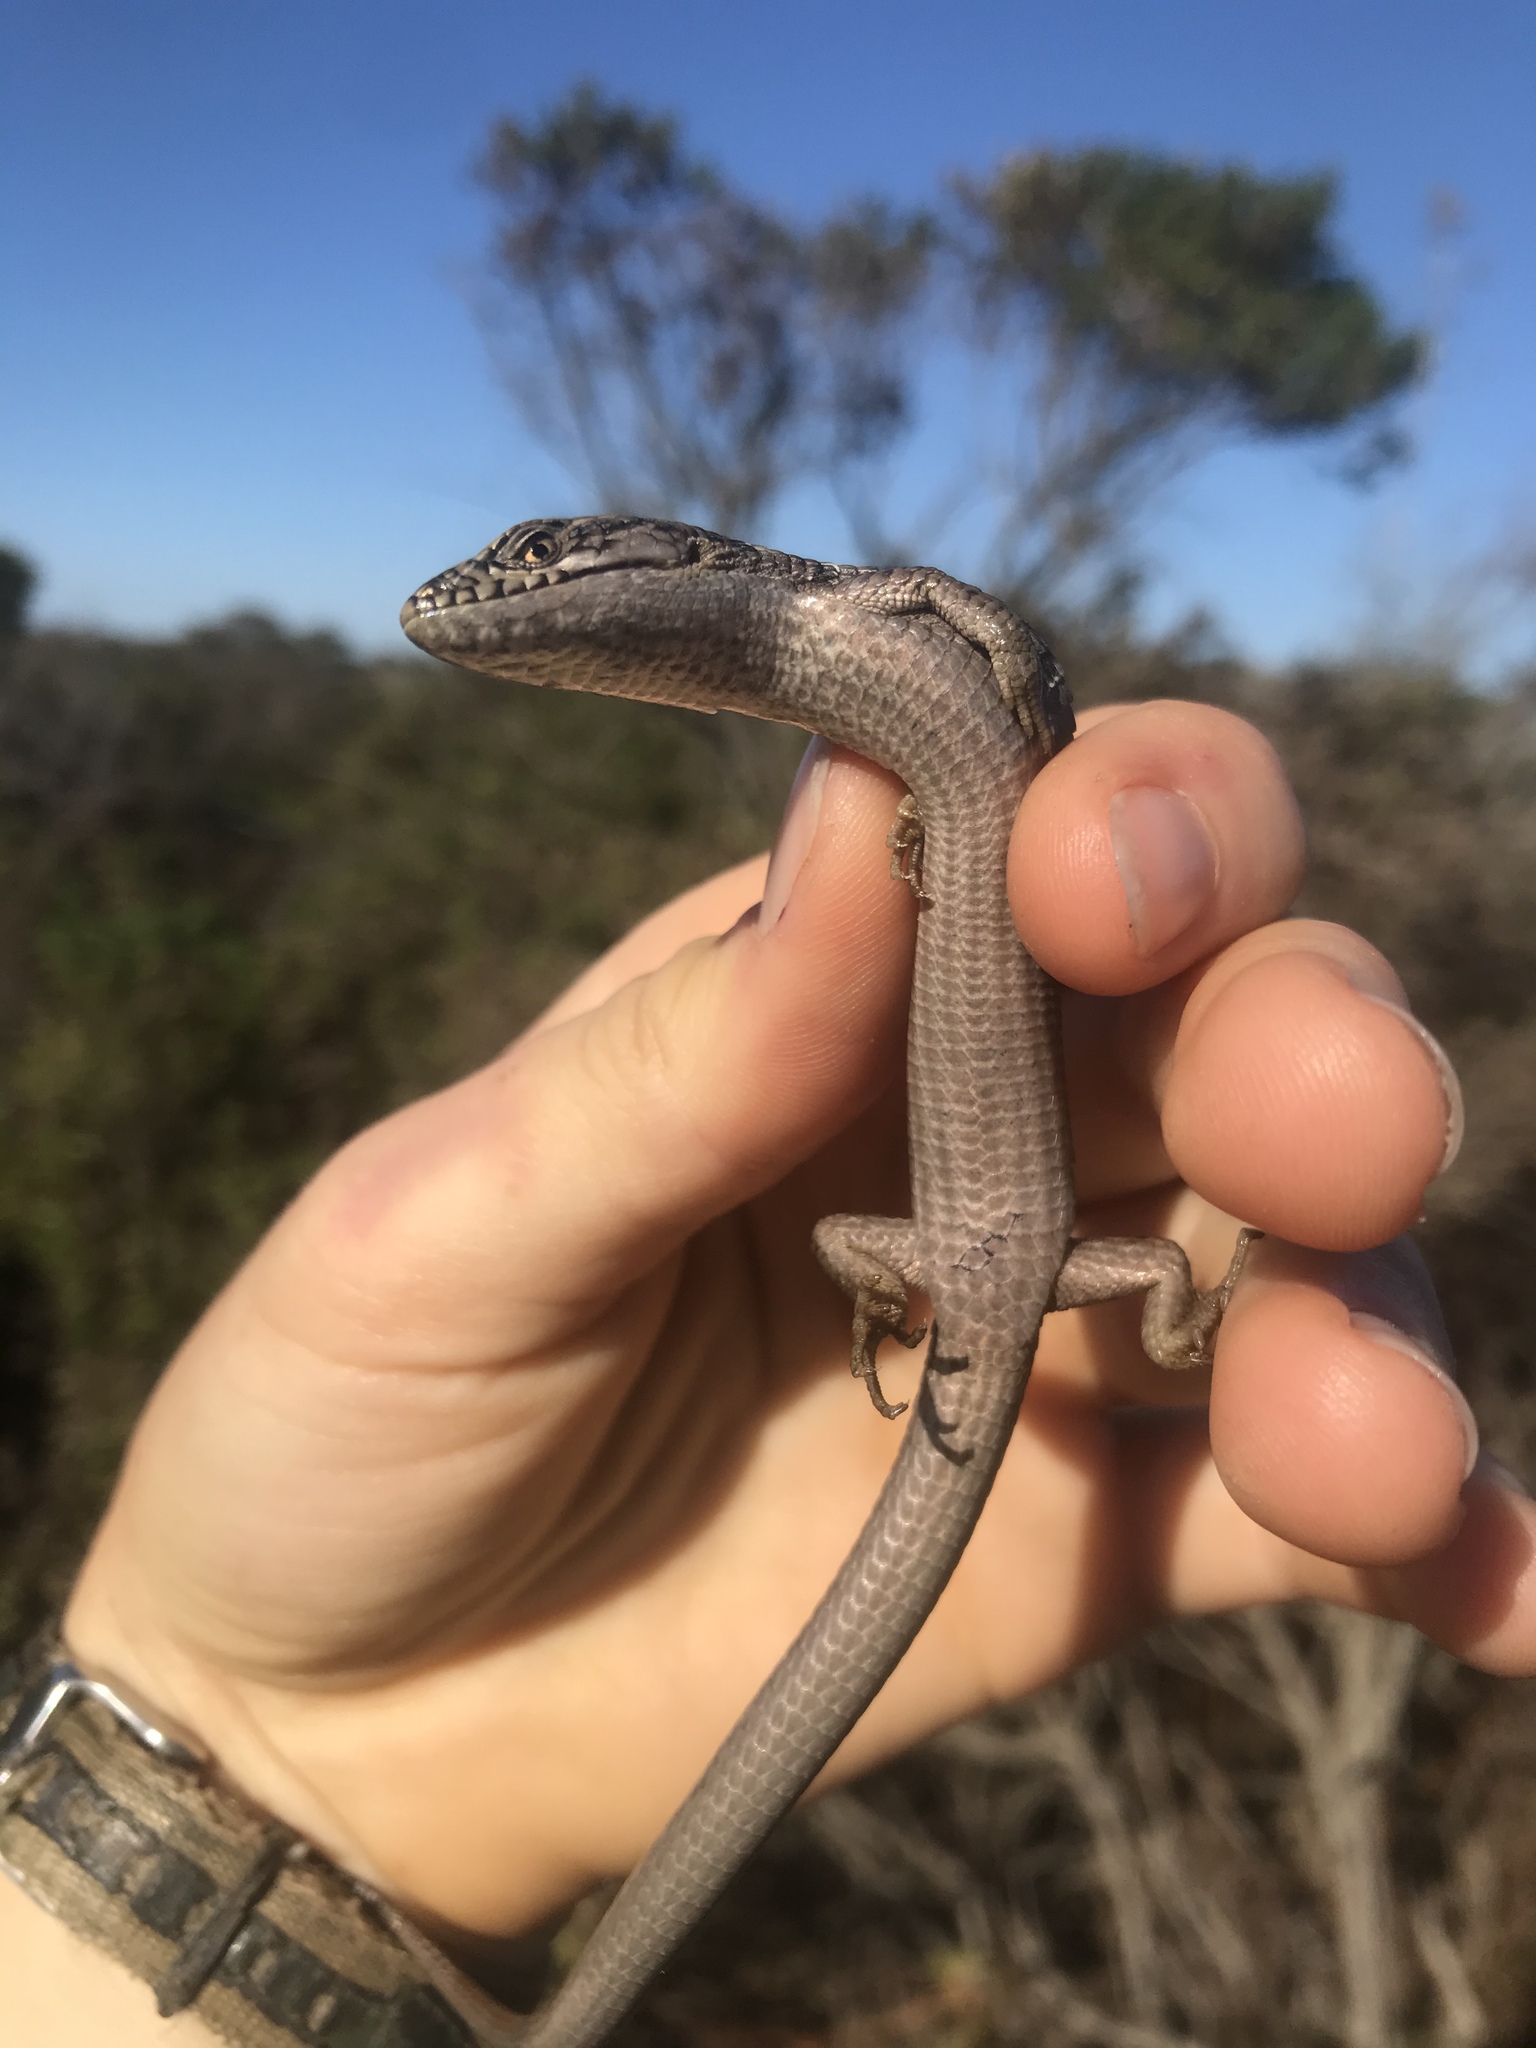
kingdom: Animalia
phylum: Chordata
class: Squamata
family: Anguidae
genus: Elgaria
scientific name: Elgaria multicarinata
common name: Southern alligator lizard
